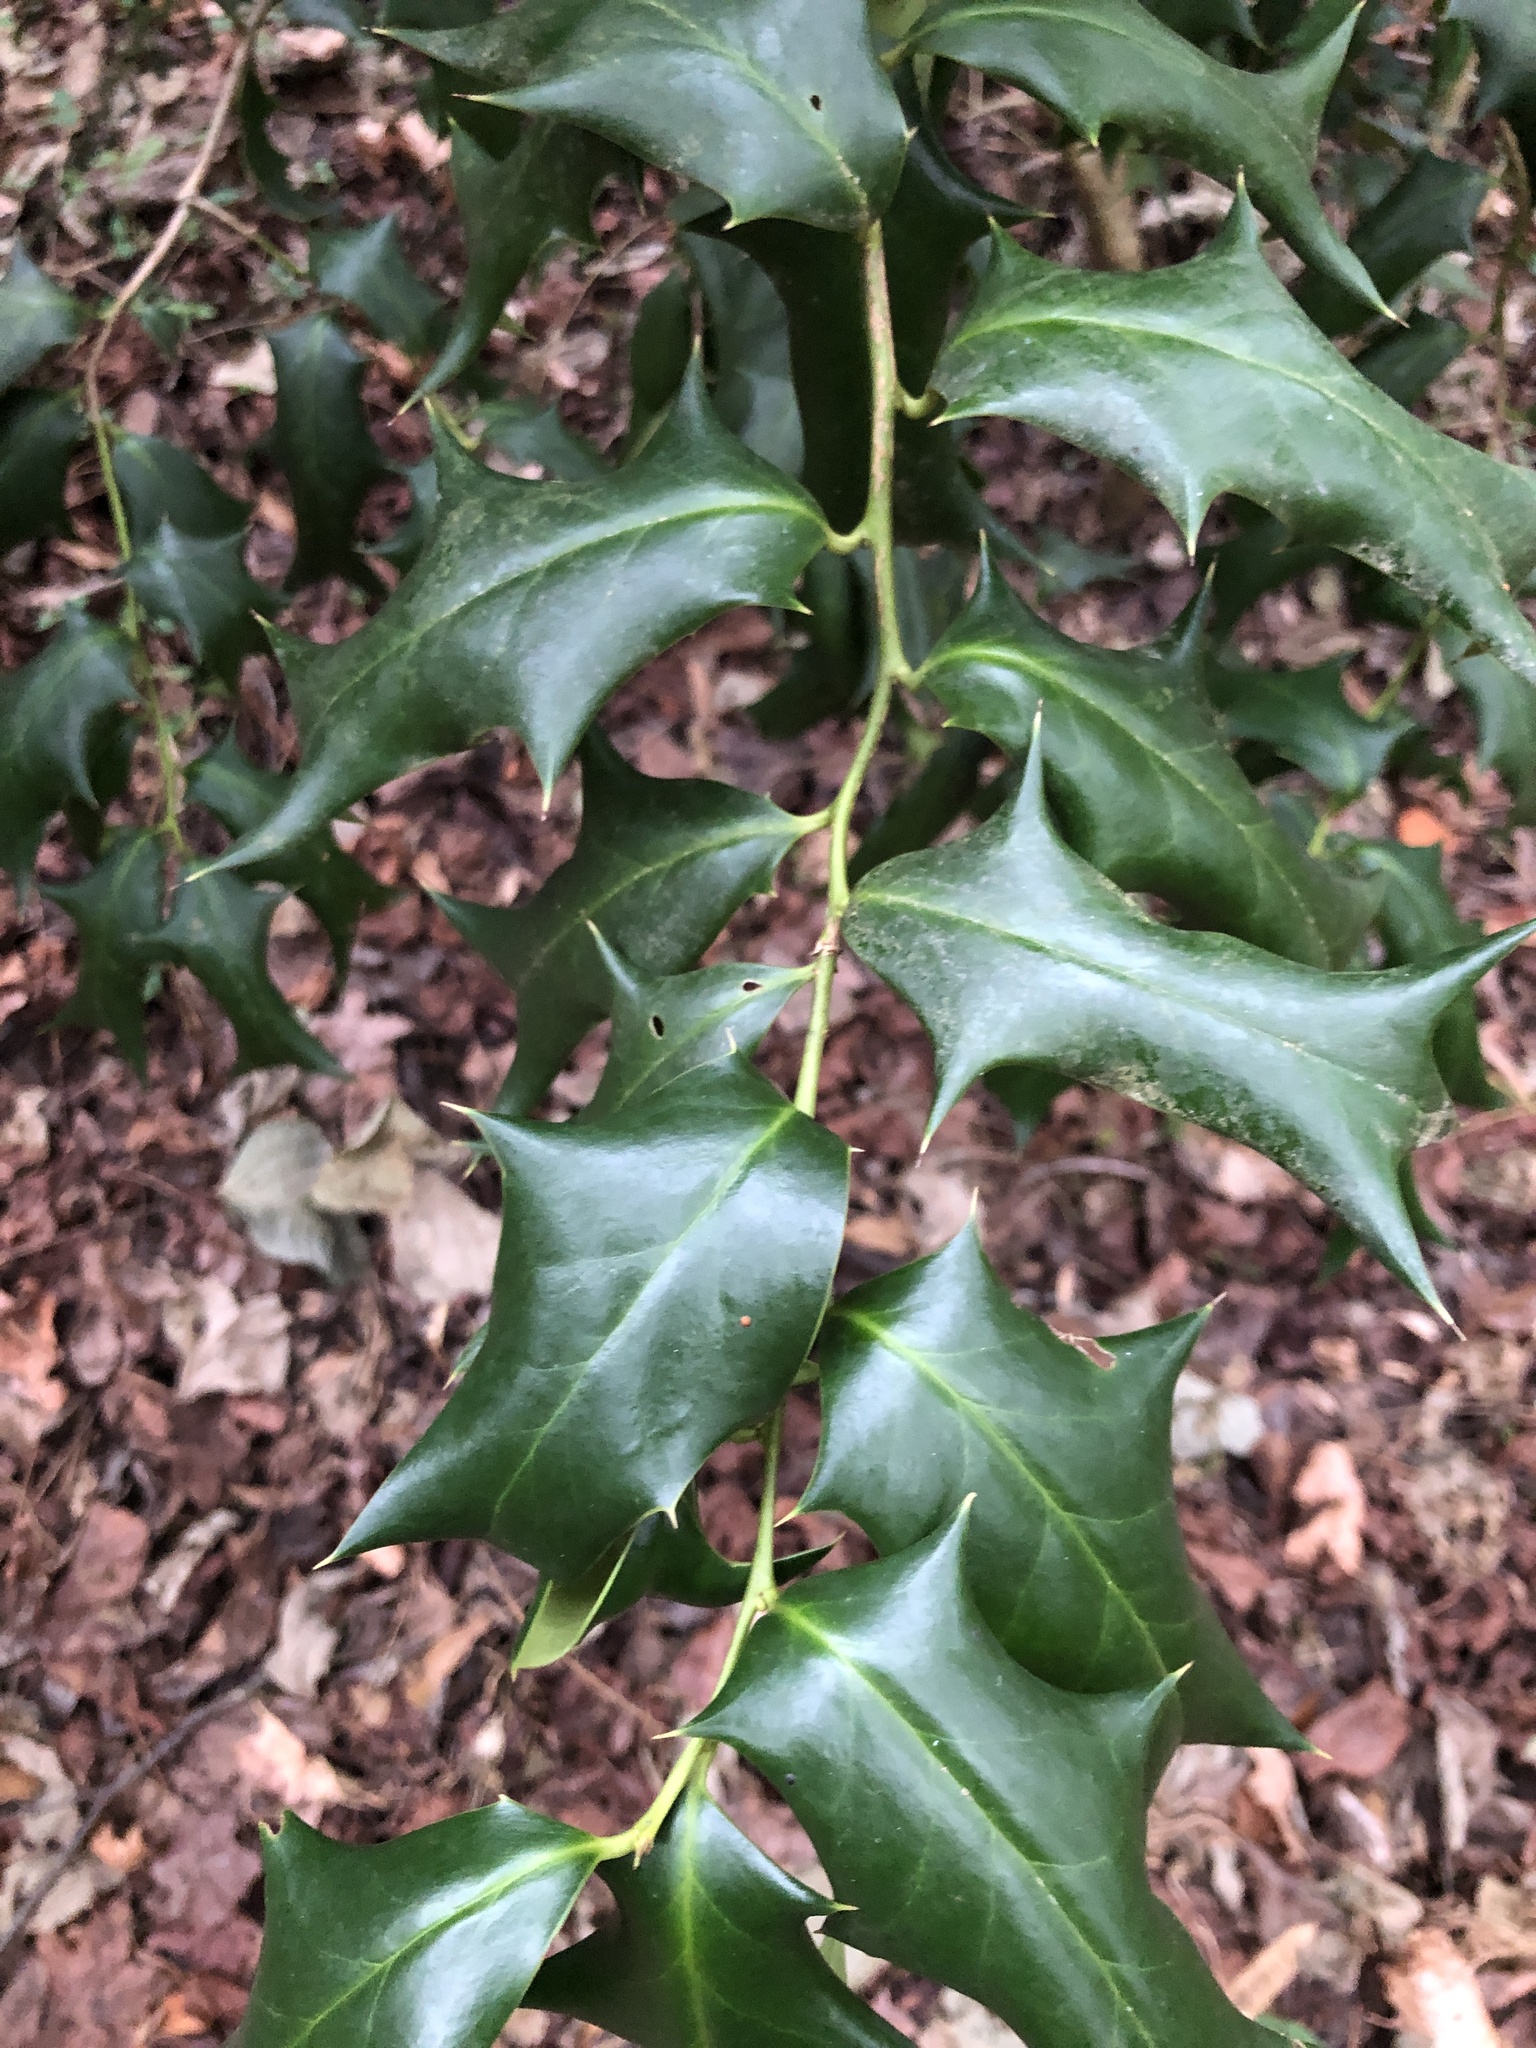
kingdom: Plantae
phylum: Tracheophyta
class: Magnoliopsida
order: Aquifoliales
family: Aquifoliaceae
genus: Ilex
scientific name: Ilex cornuta
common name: Chinese holly
